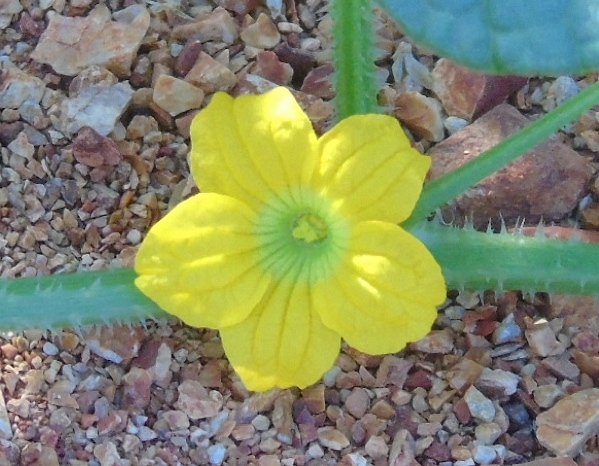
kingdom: Plantae
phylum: Tracheophyta
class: Magnoliopsida
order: Cucurbitales
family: Cucurbitaceae
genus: Cucumis
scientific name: Cucumis dipsaceus
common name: Hedgehog gourd
